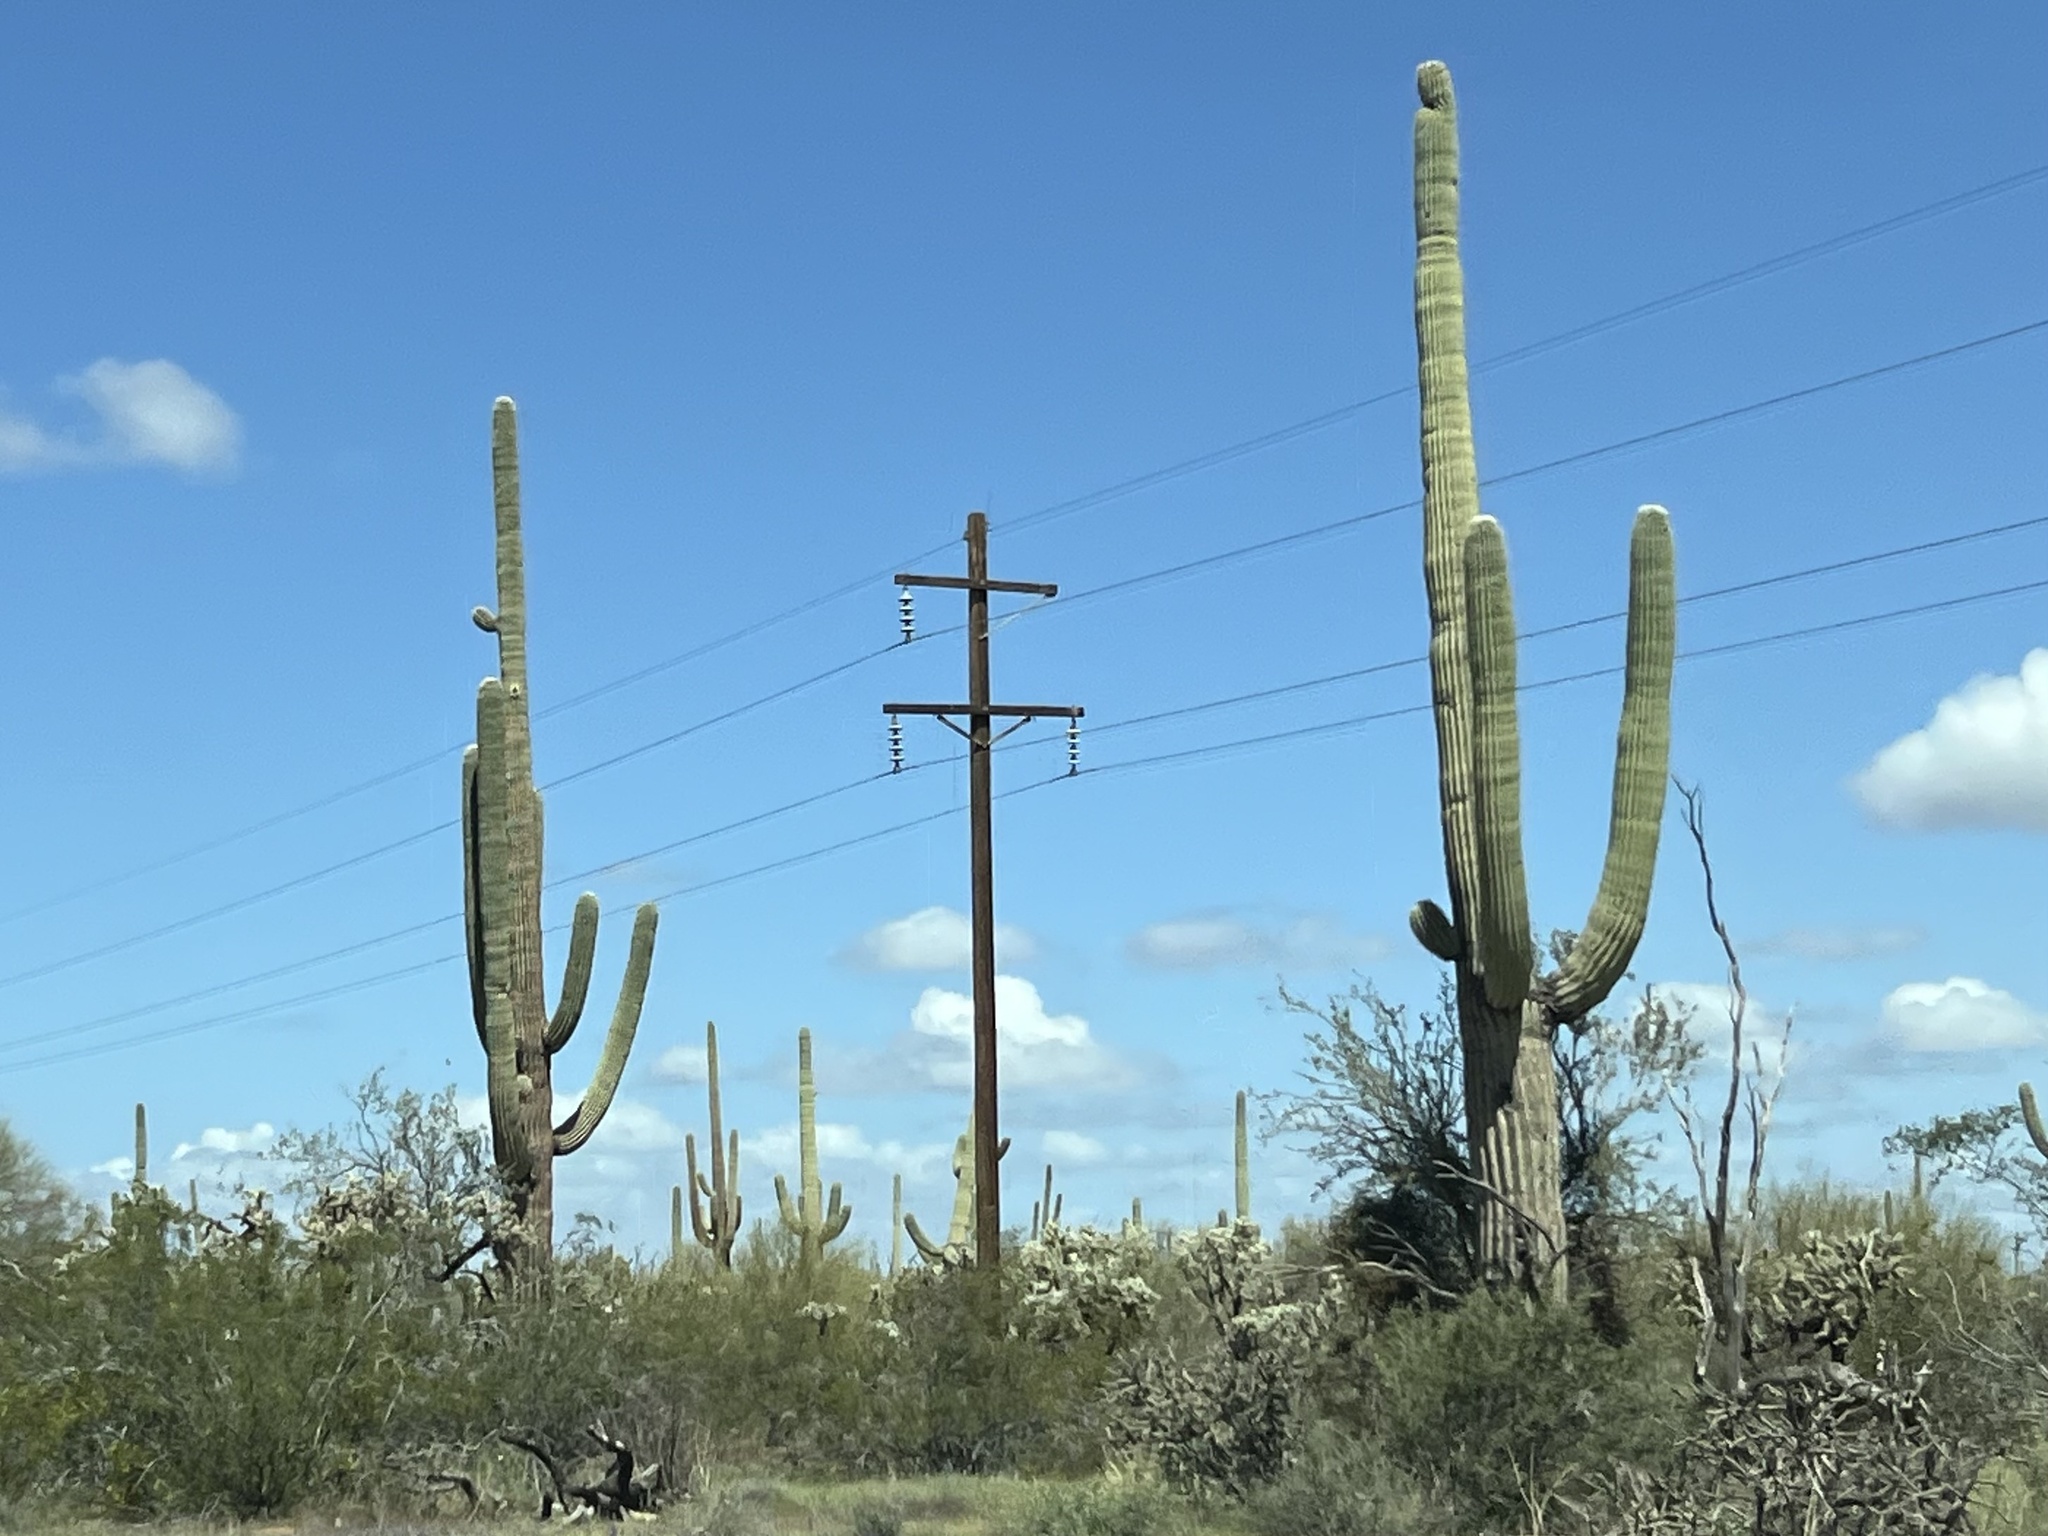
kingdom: Plantae
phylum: Tracheophyta
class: Magnoliopsida
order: Caryophyllales
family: Cactaceae
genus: Carnegiea
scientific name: Carnegiea gigantea
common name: Saguaro
